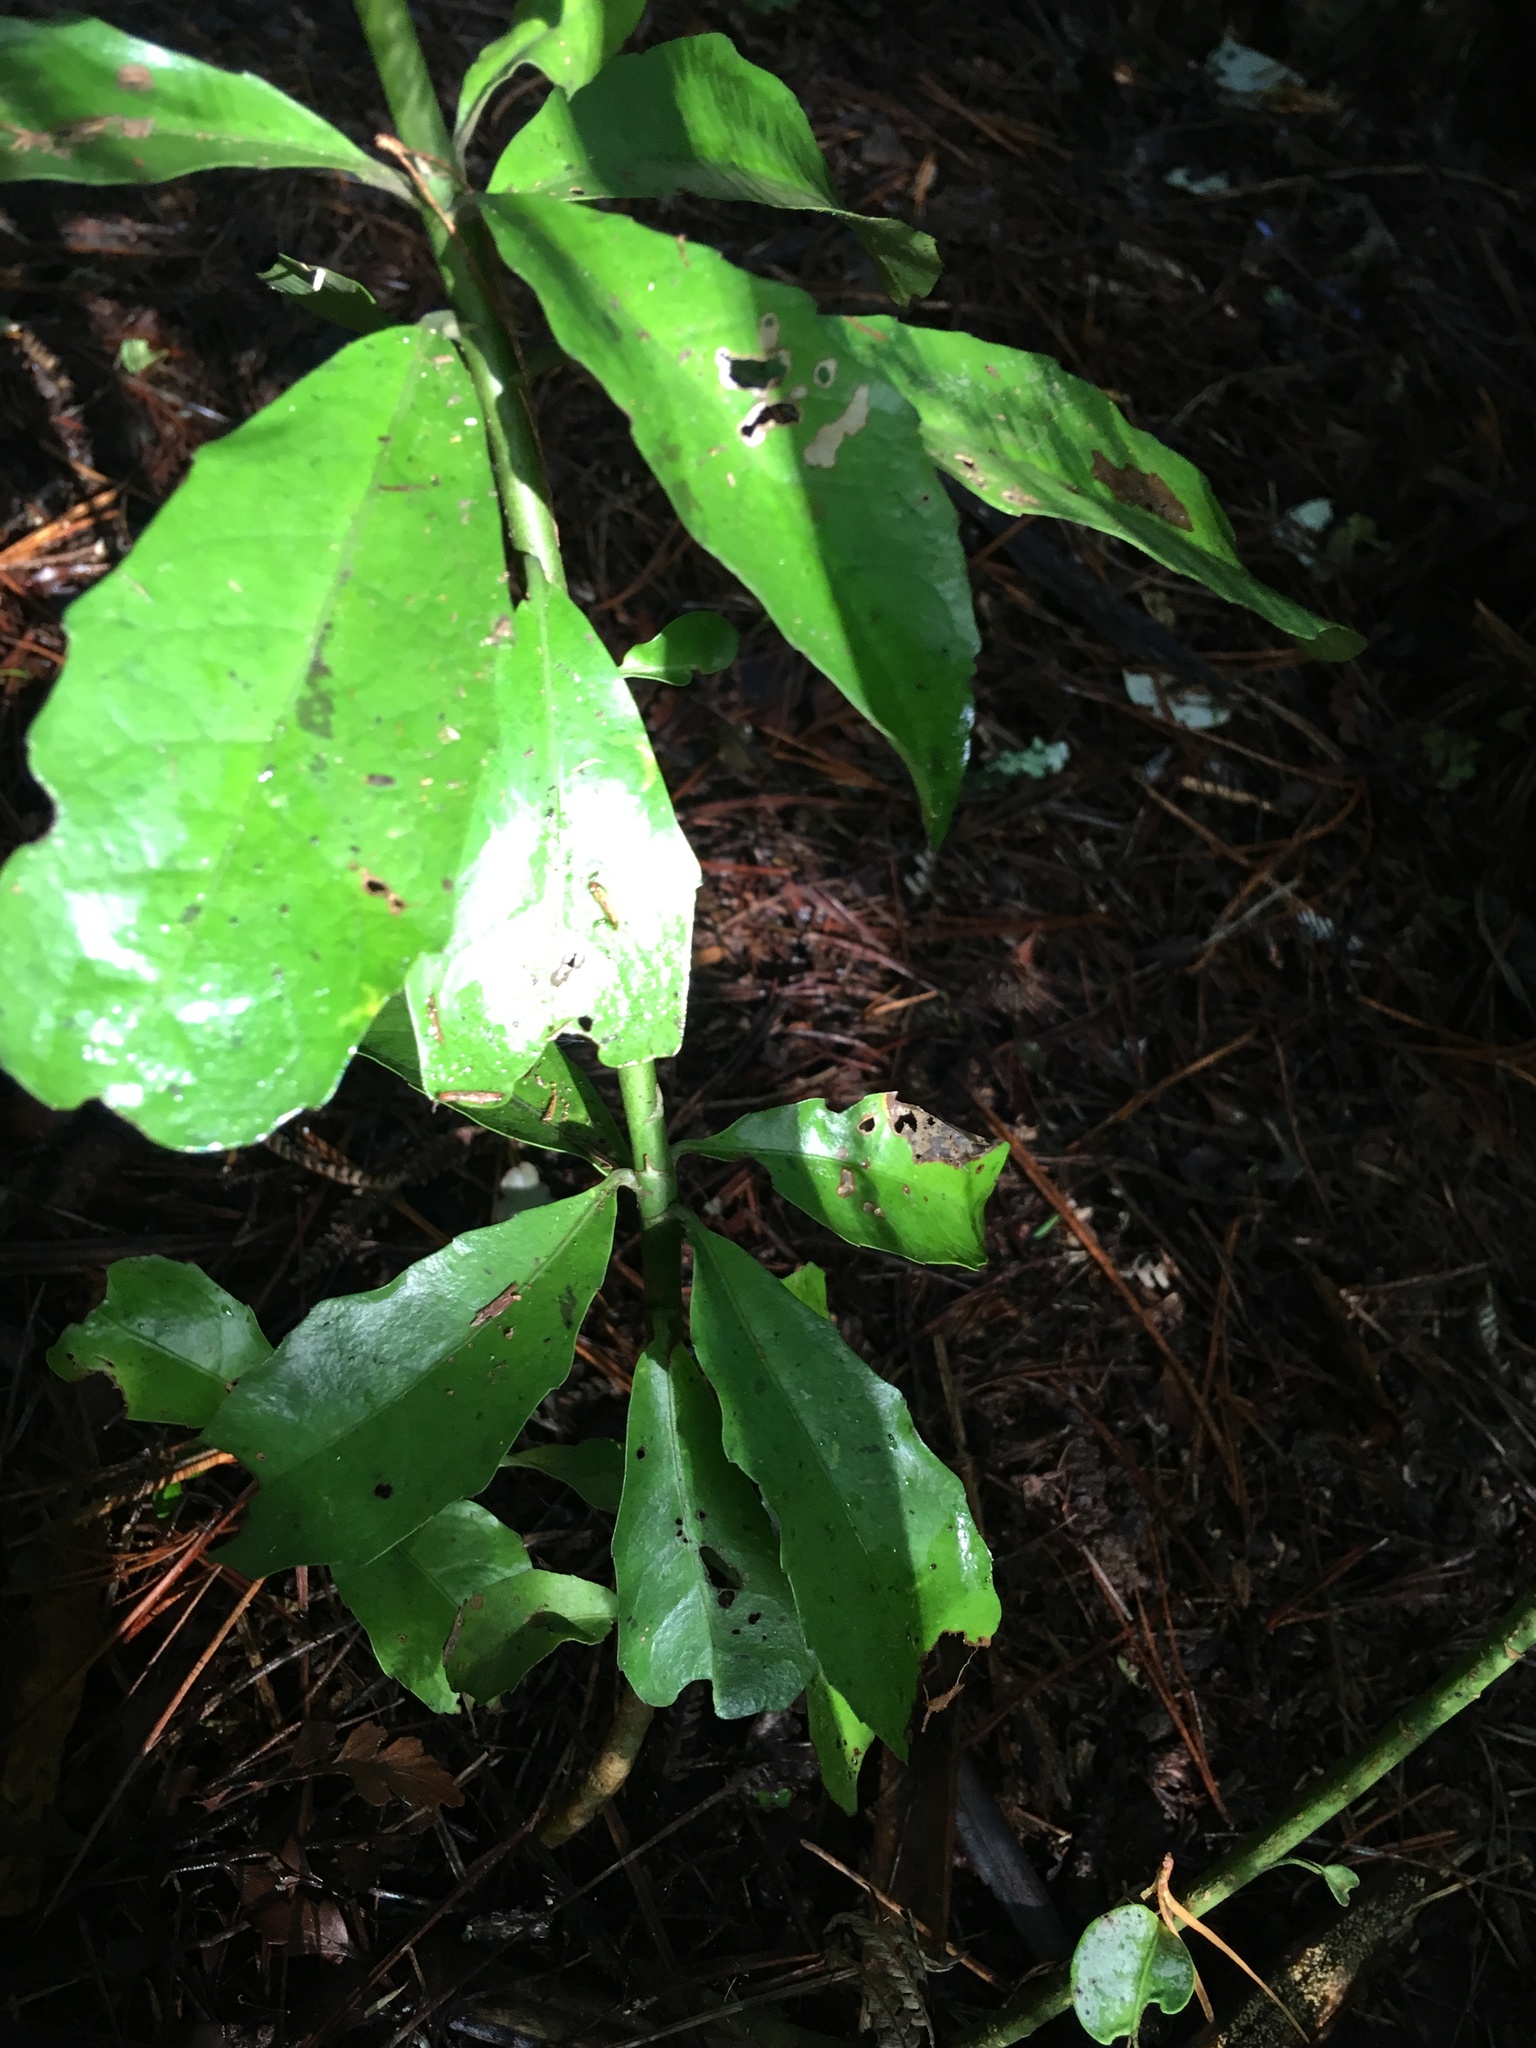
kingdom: Plantae
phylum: Tracheophyta
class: Magnoliopsida
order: Asterales
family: Alseuosmiaceae
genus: Alseuosmia
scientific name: Alseuosmia macrophylla
